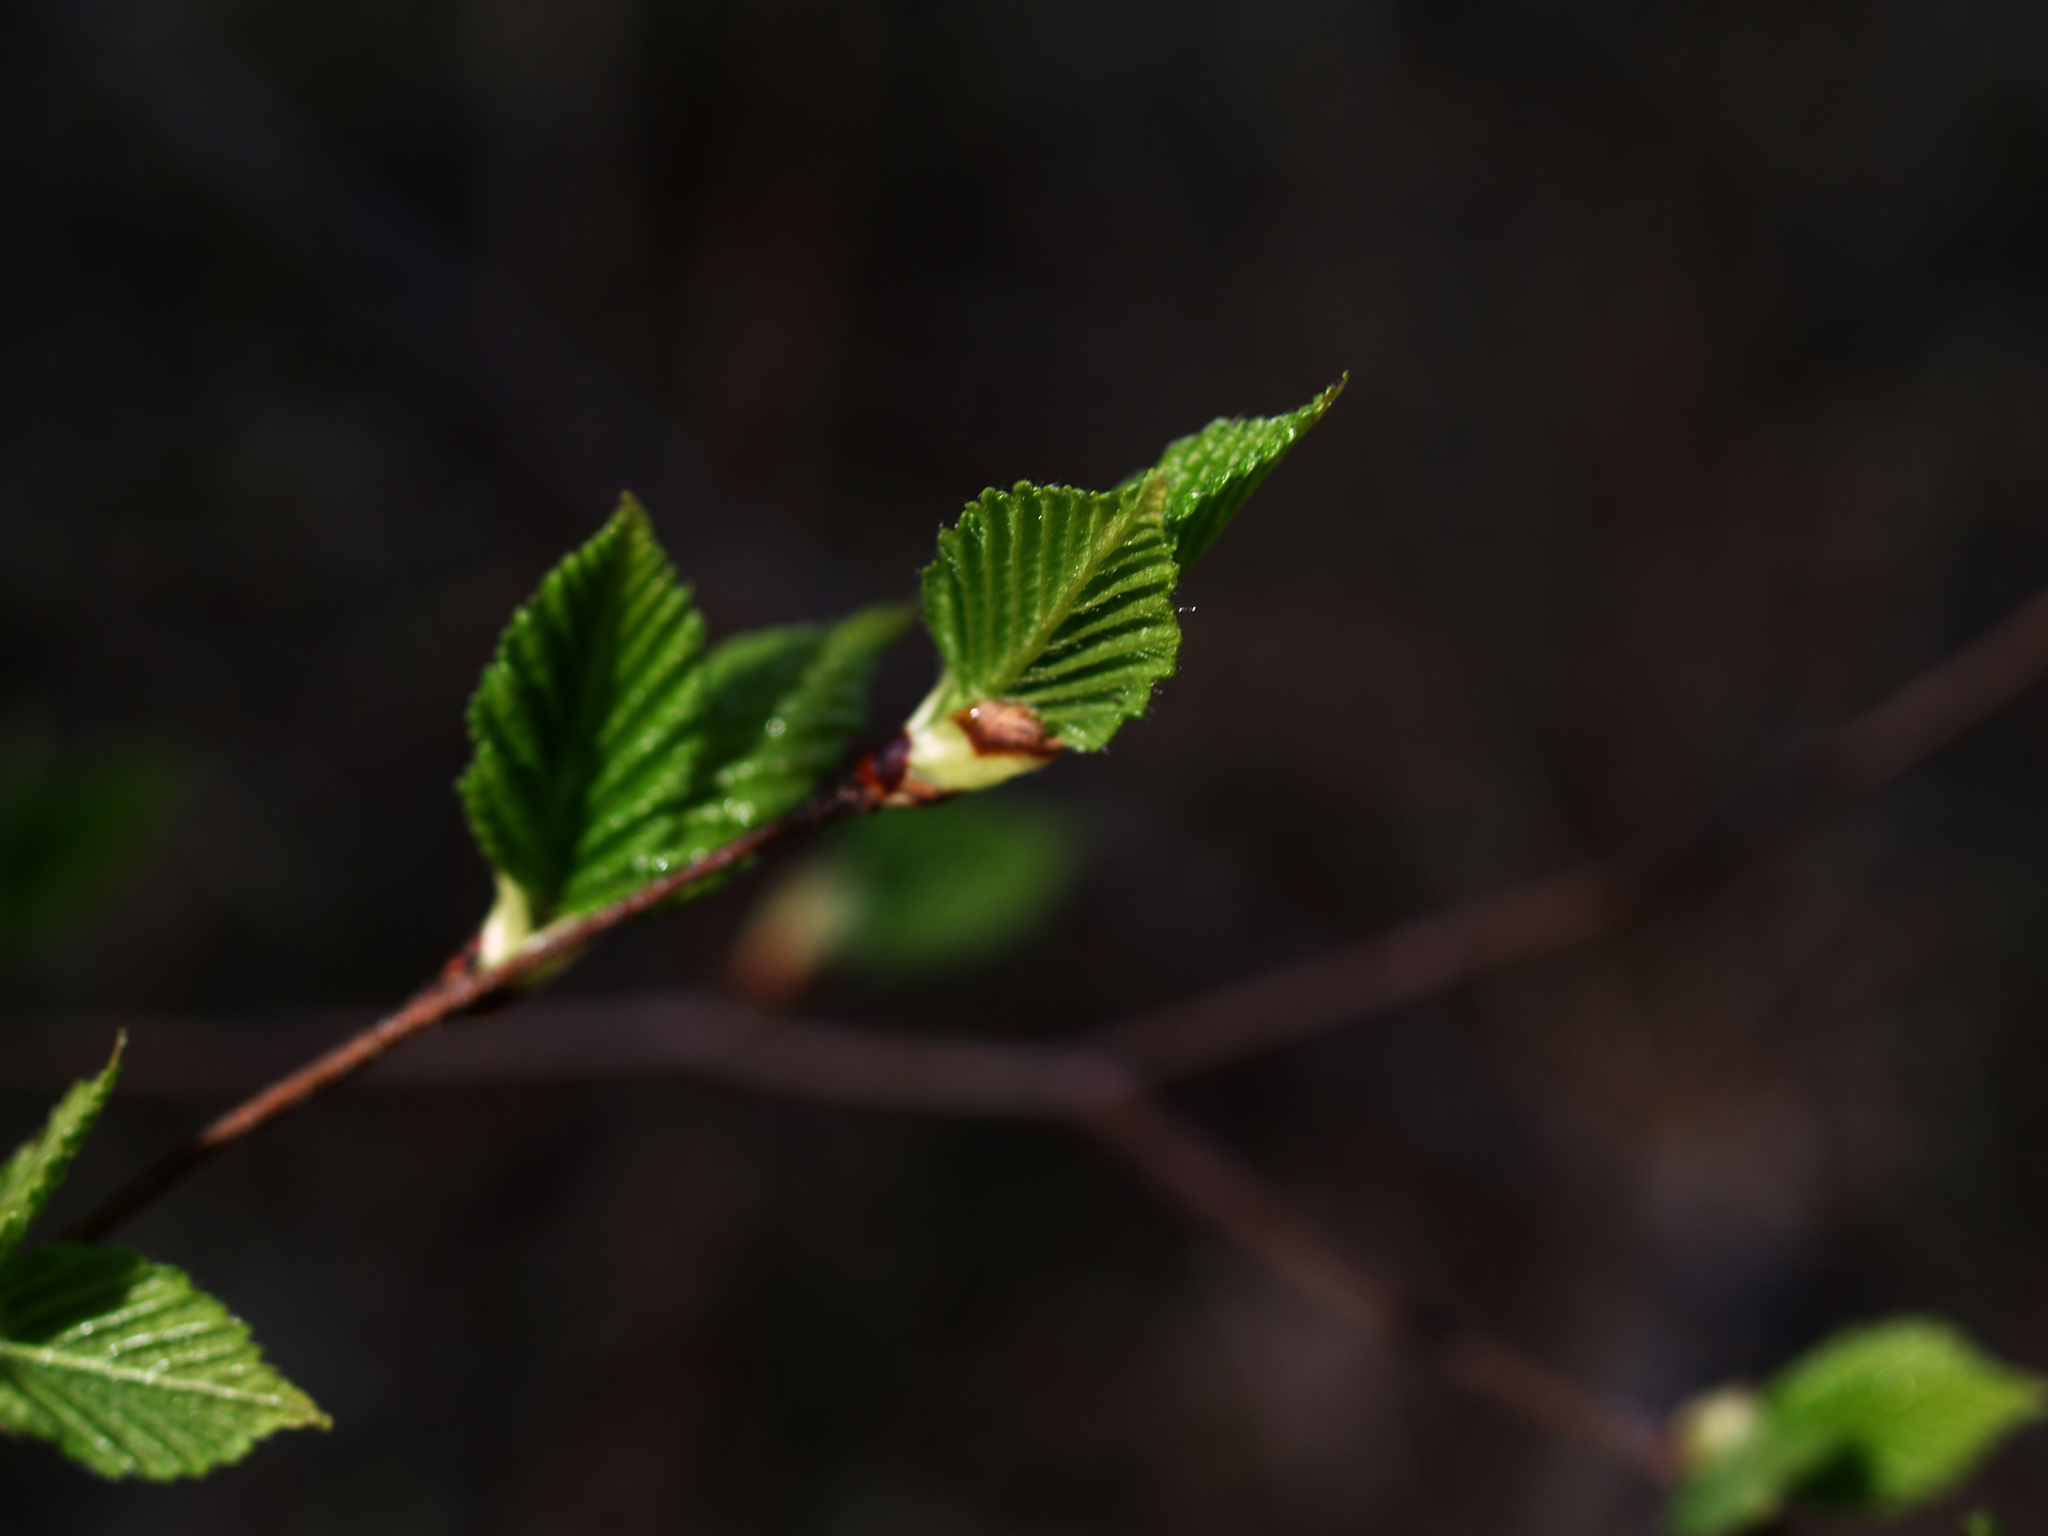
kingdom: Plantae
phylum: Tracheophyta
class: Magnoliopsida
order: Fagales
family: Fagaceae
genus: Fagus
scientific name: Fagus grandifolia
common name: American beech
